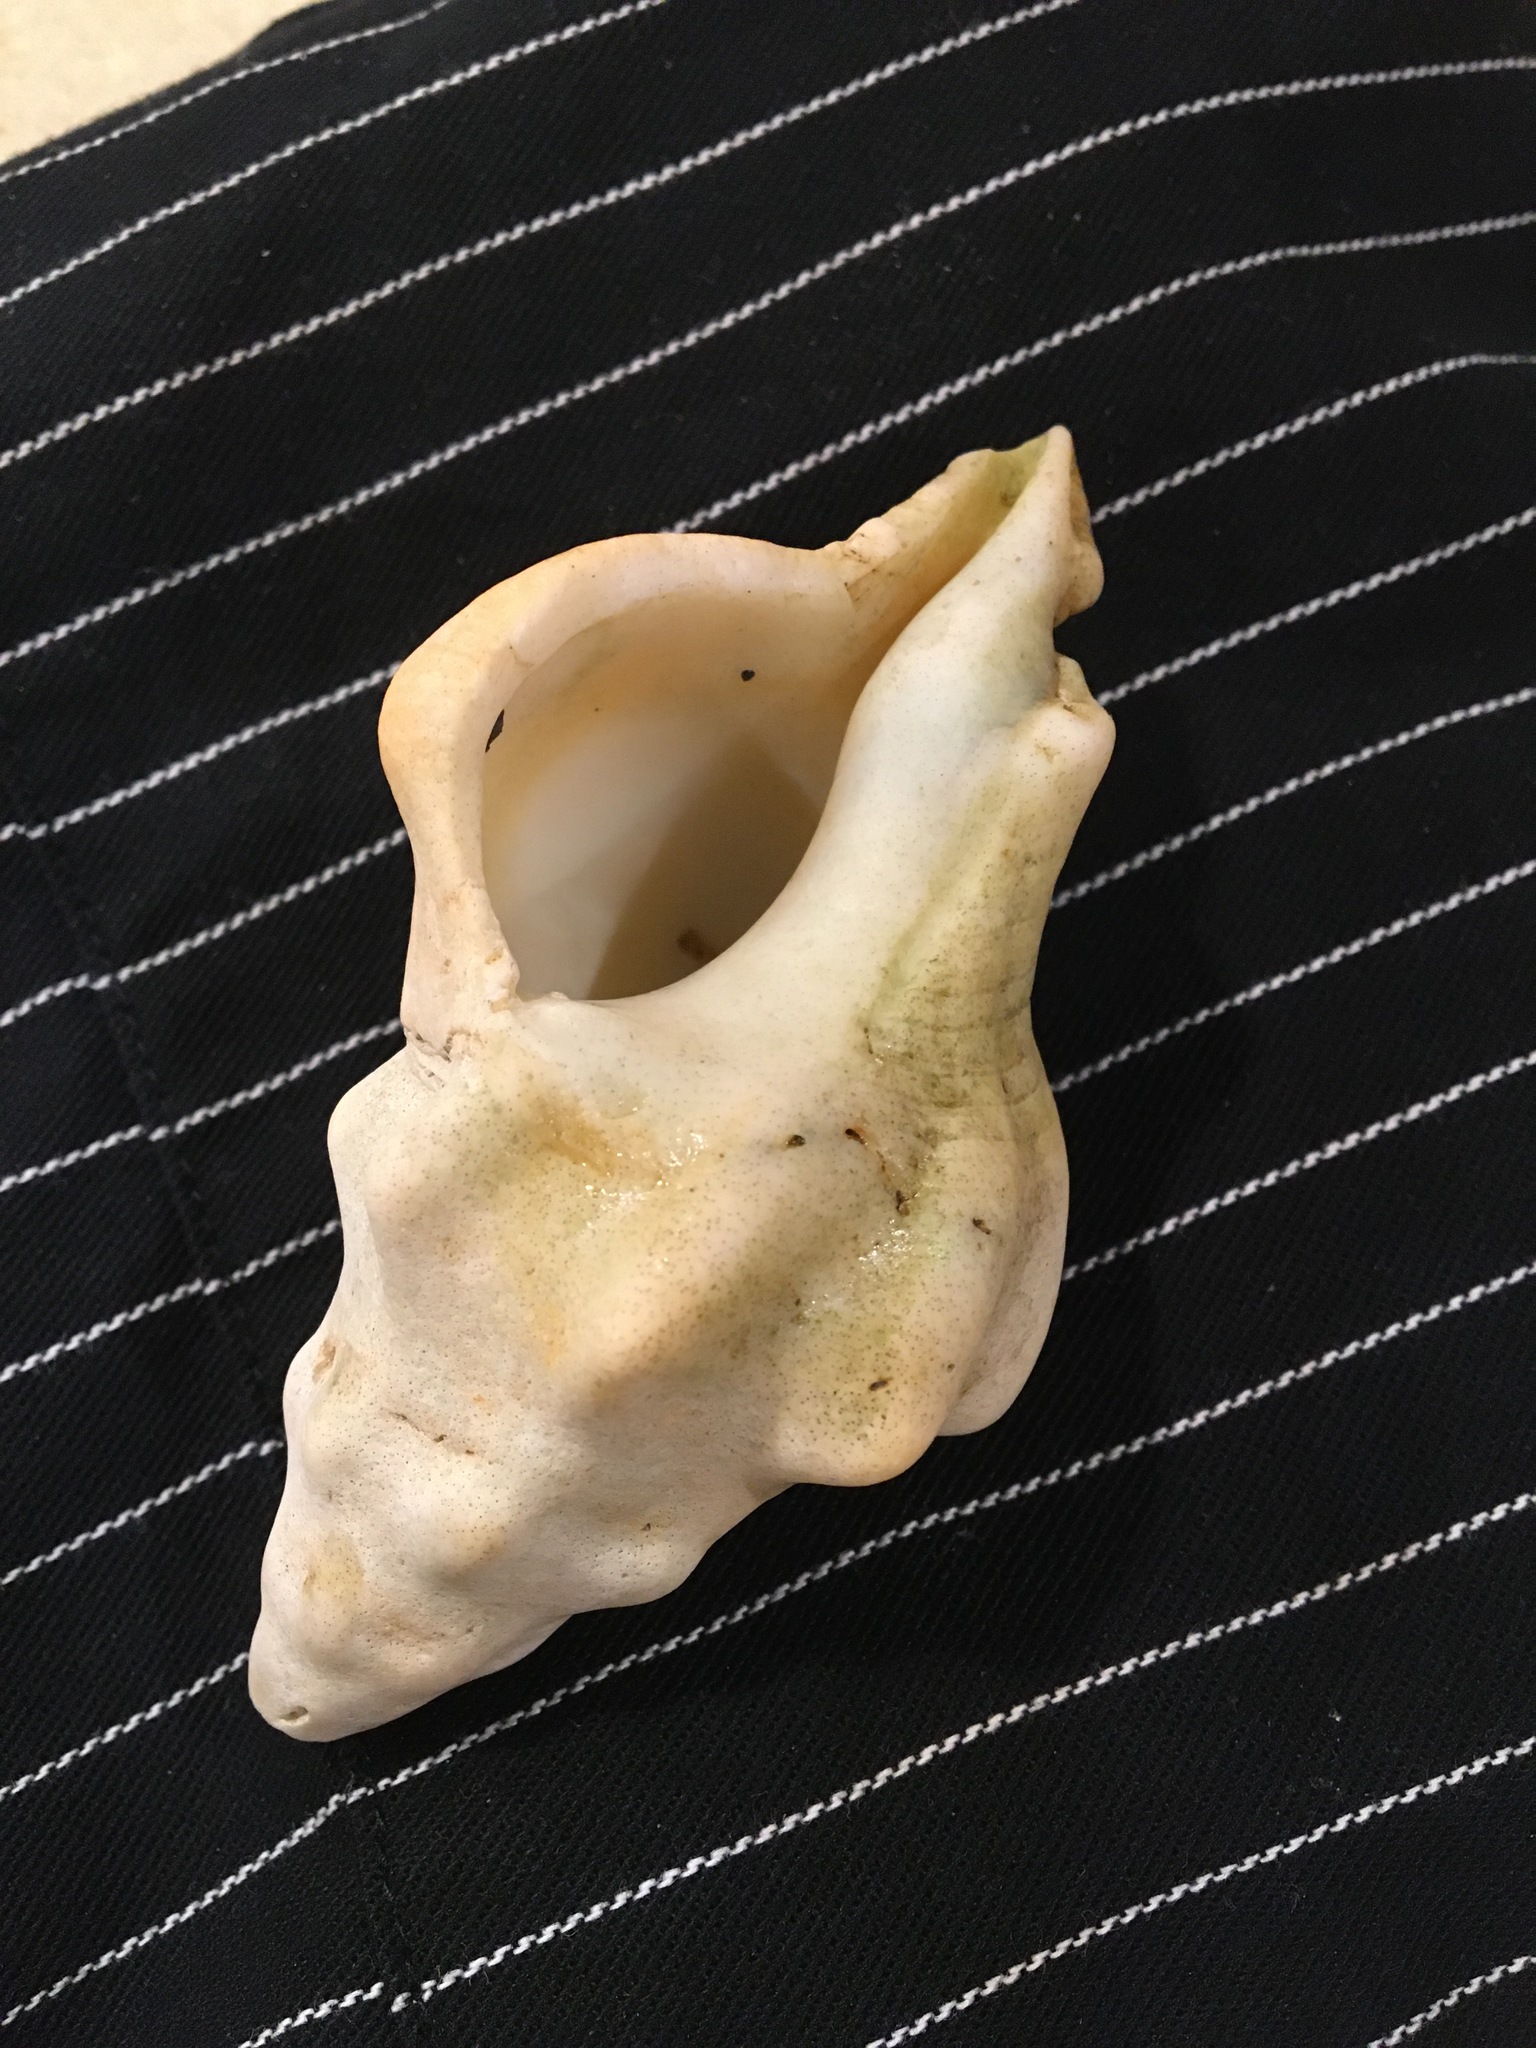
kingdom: Animalia
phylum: Mollusca
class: Gastropoda
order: Neogastropoda
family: Austrosiphonidae
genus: Kelletia
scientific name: Kelletia kelletii
